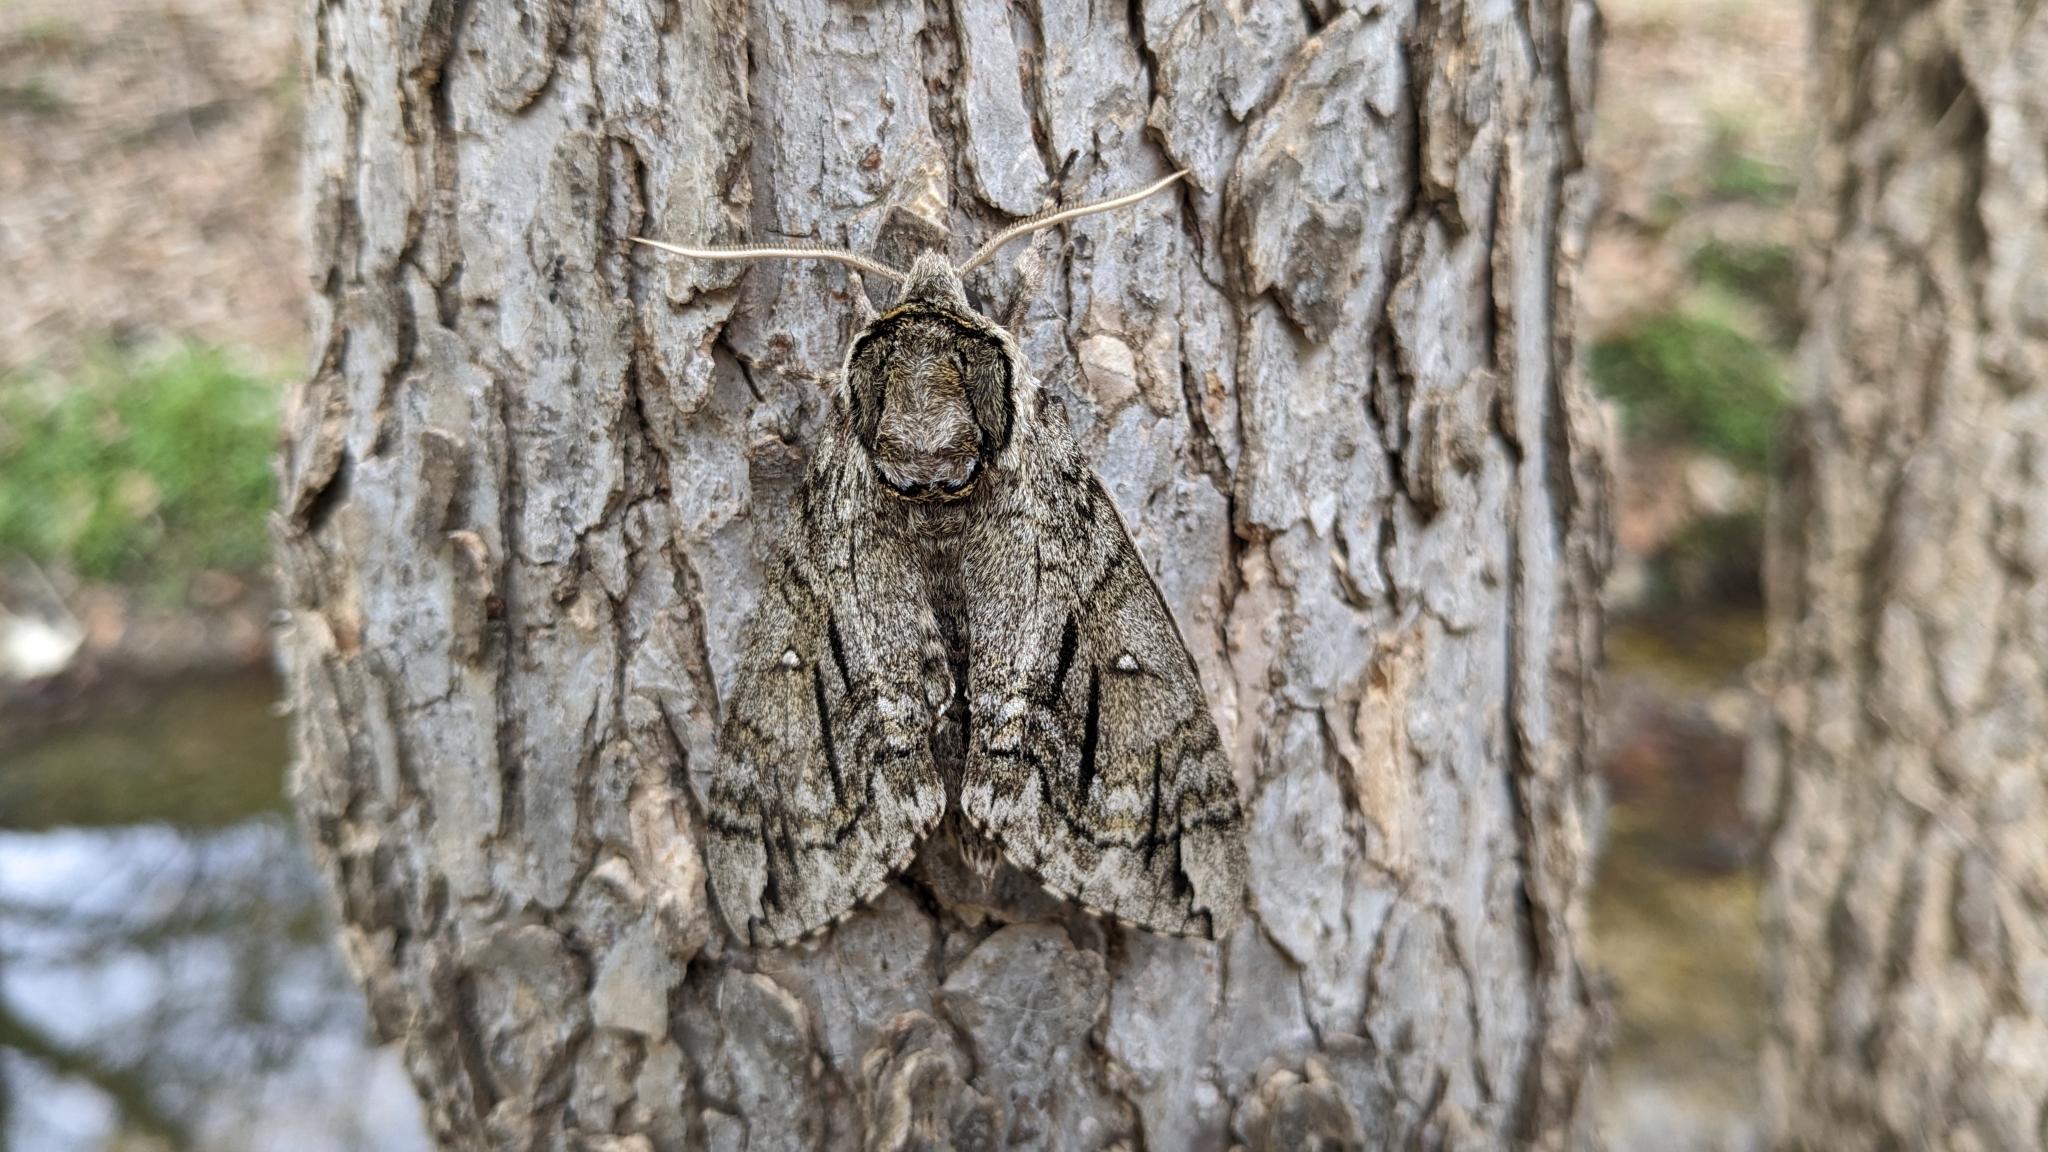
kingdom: Animalia
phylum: Arthropoda
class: Insecta
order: Lepidoptera
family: Sphingidae
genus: Ceratomia
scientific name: Ceratomia undulosa
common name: Waved sphinx
